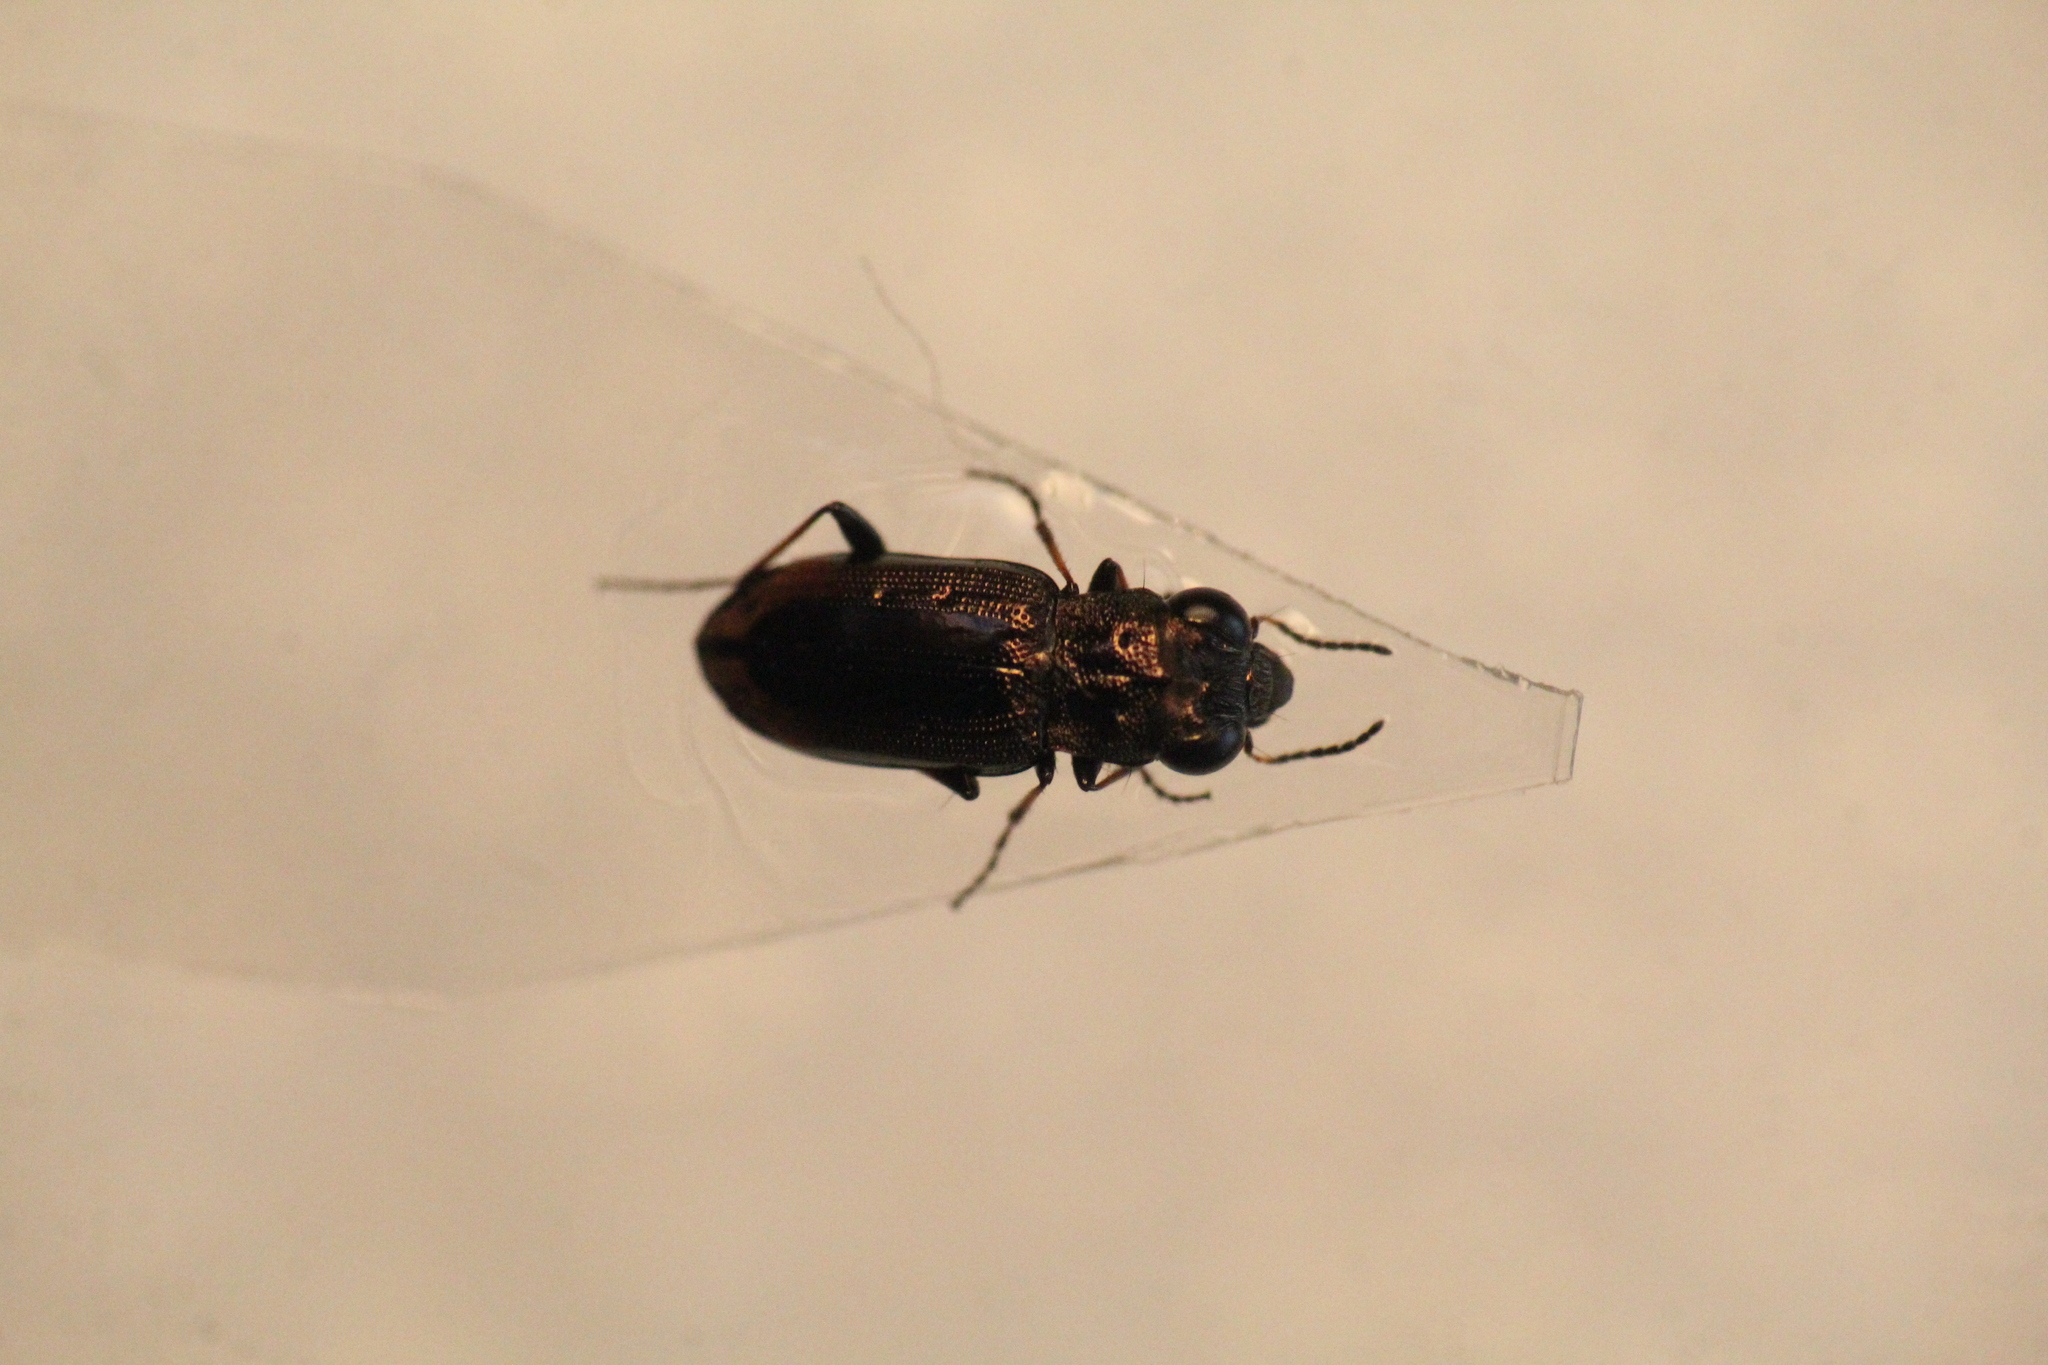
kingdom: Animalia
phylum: Arthropoda
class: Insecta
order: Coleoptera
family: Carabidae
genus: Notiophilus
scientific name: Notiophilus quadripunctatus
